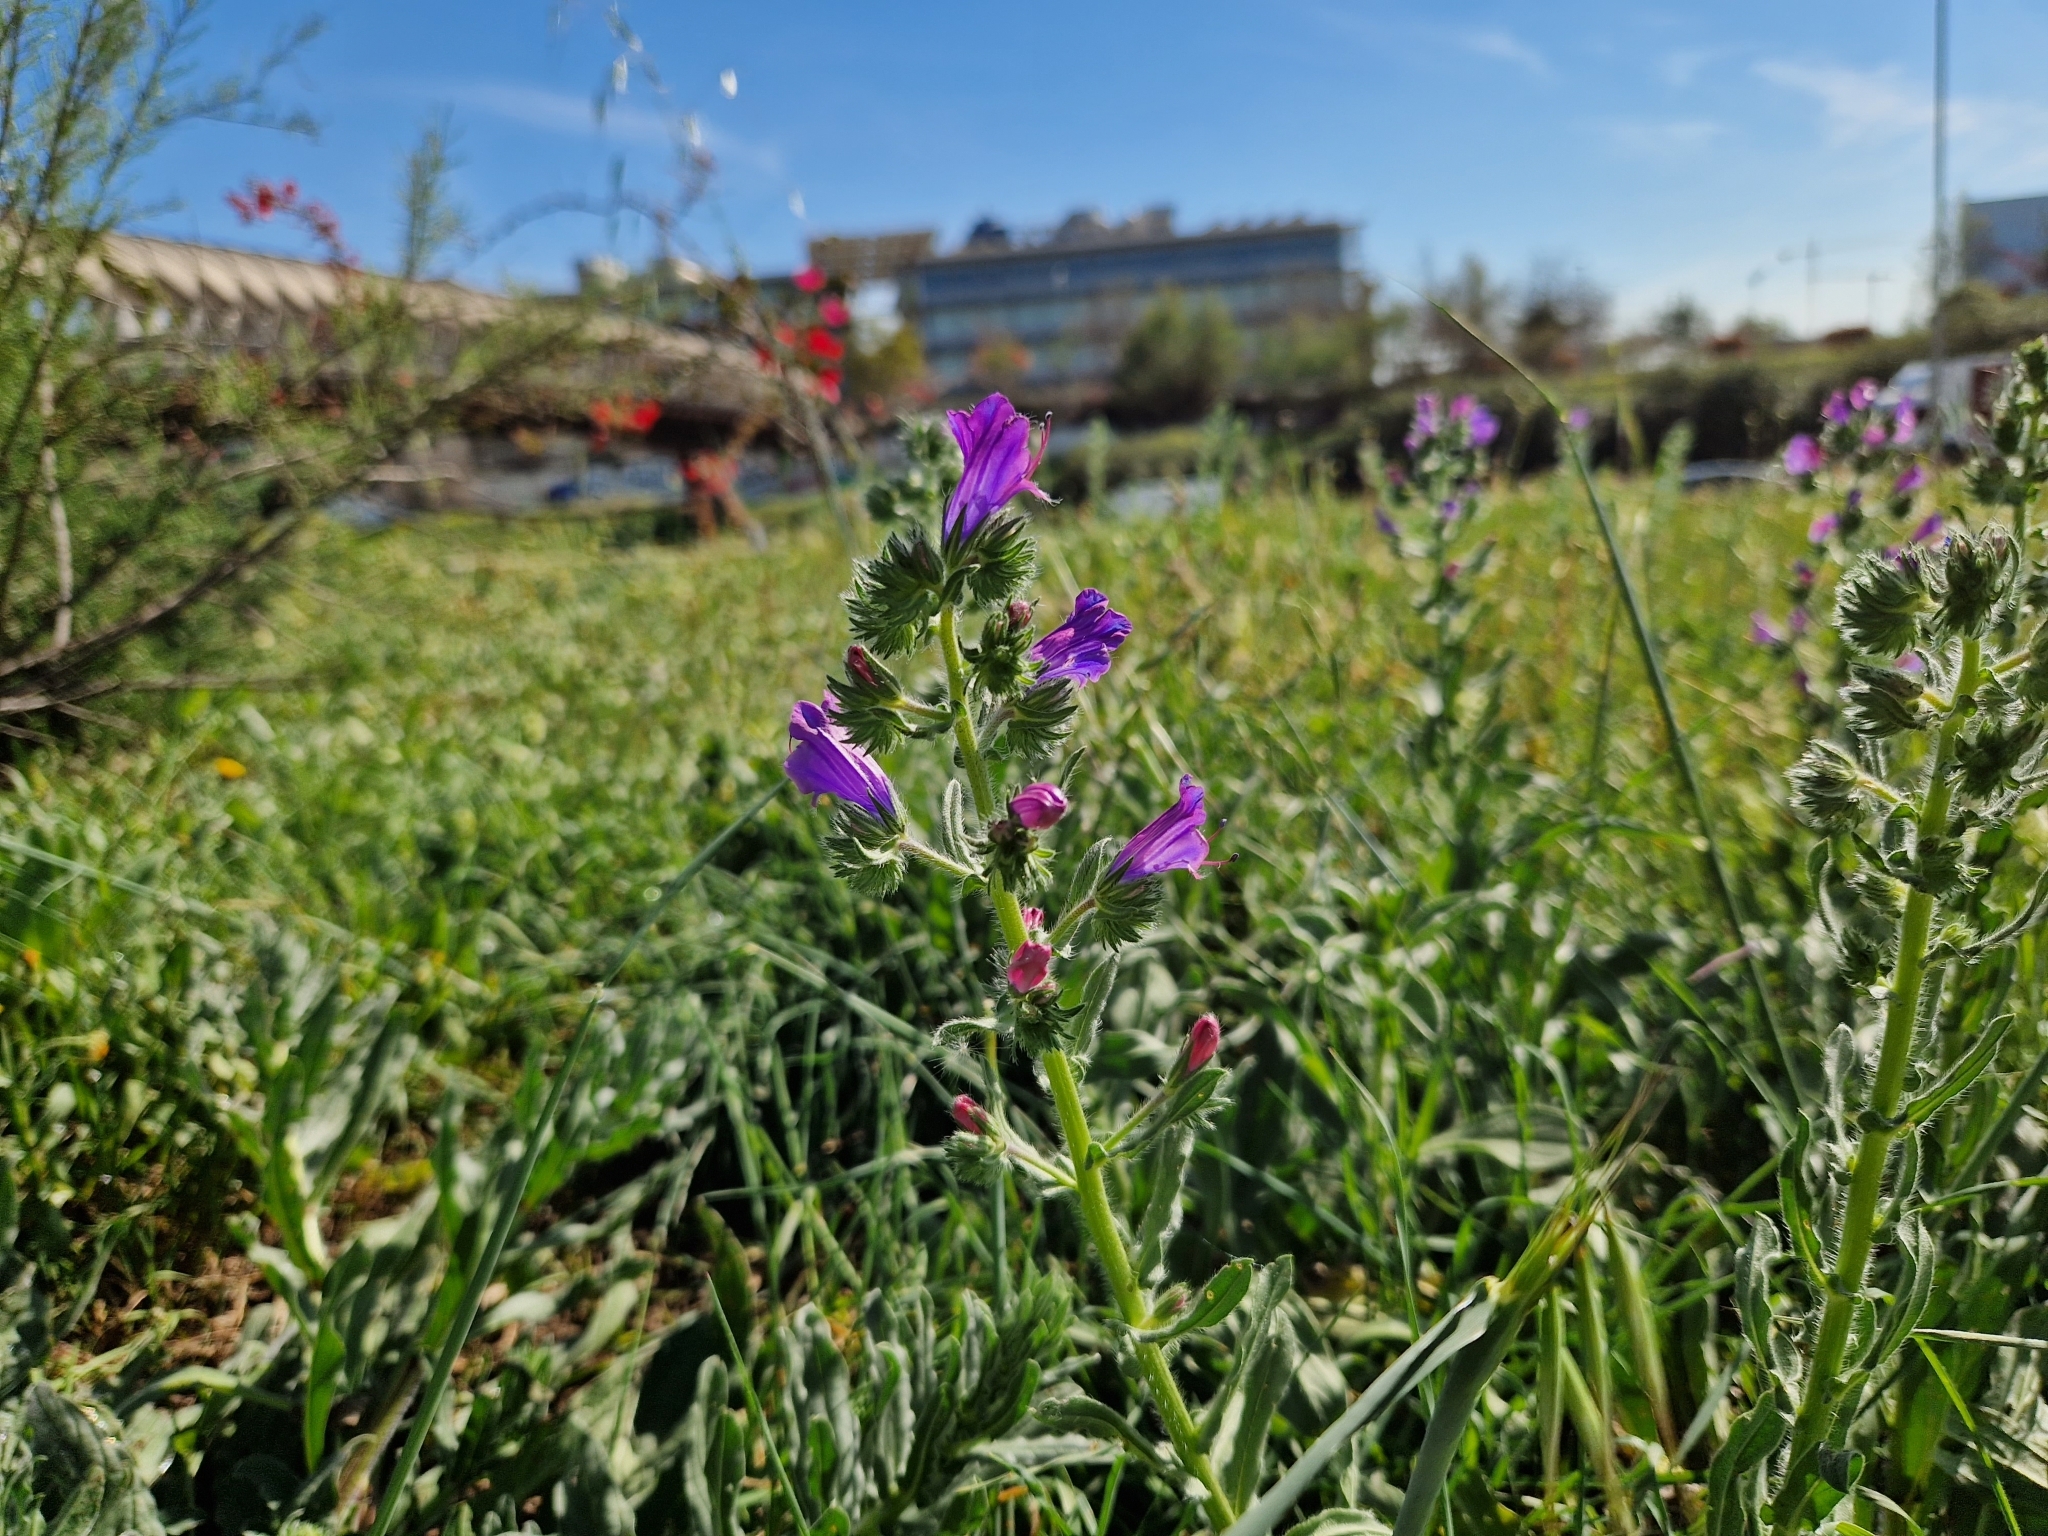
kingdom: Plantae
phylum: Tracheophyta
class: Magnoliopsida
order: Boraginales
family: Boraginaceae
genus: Echium
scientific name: Echium plantagineum
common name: Purple viper's-bugloss
